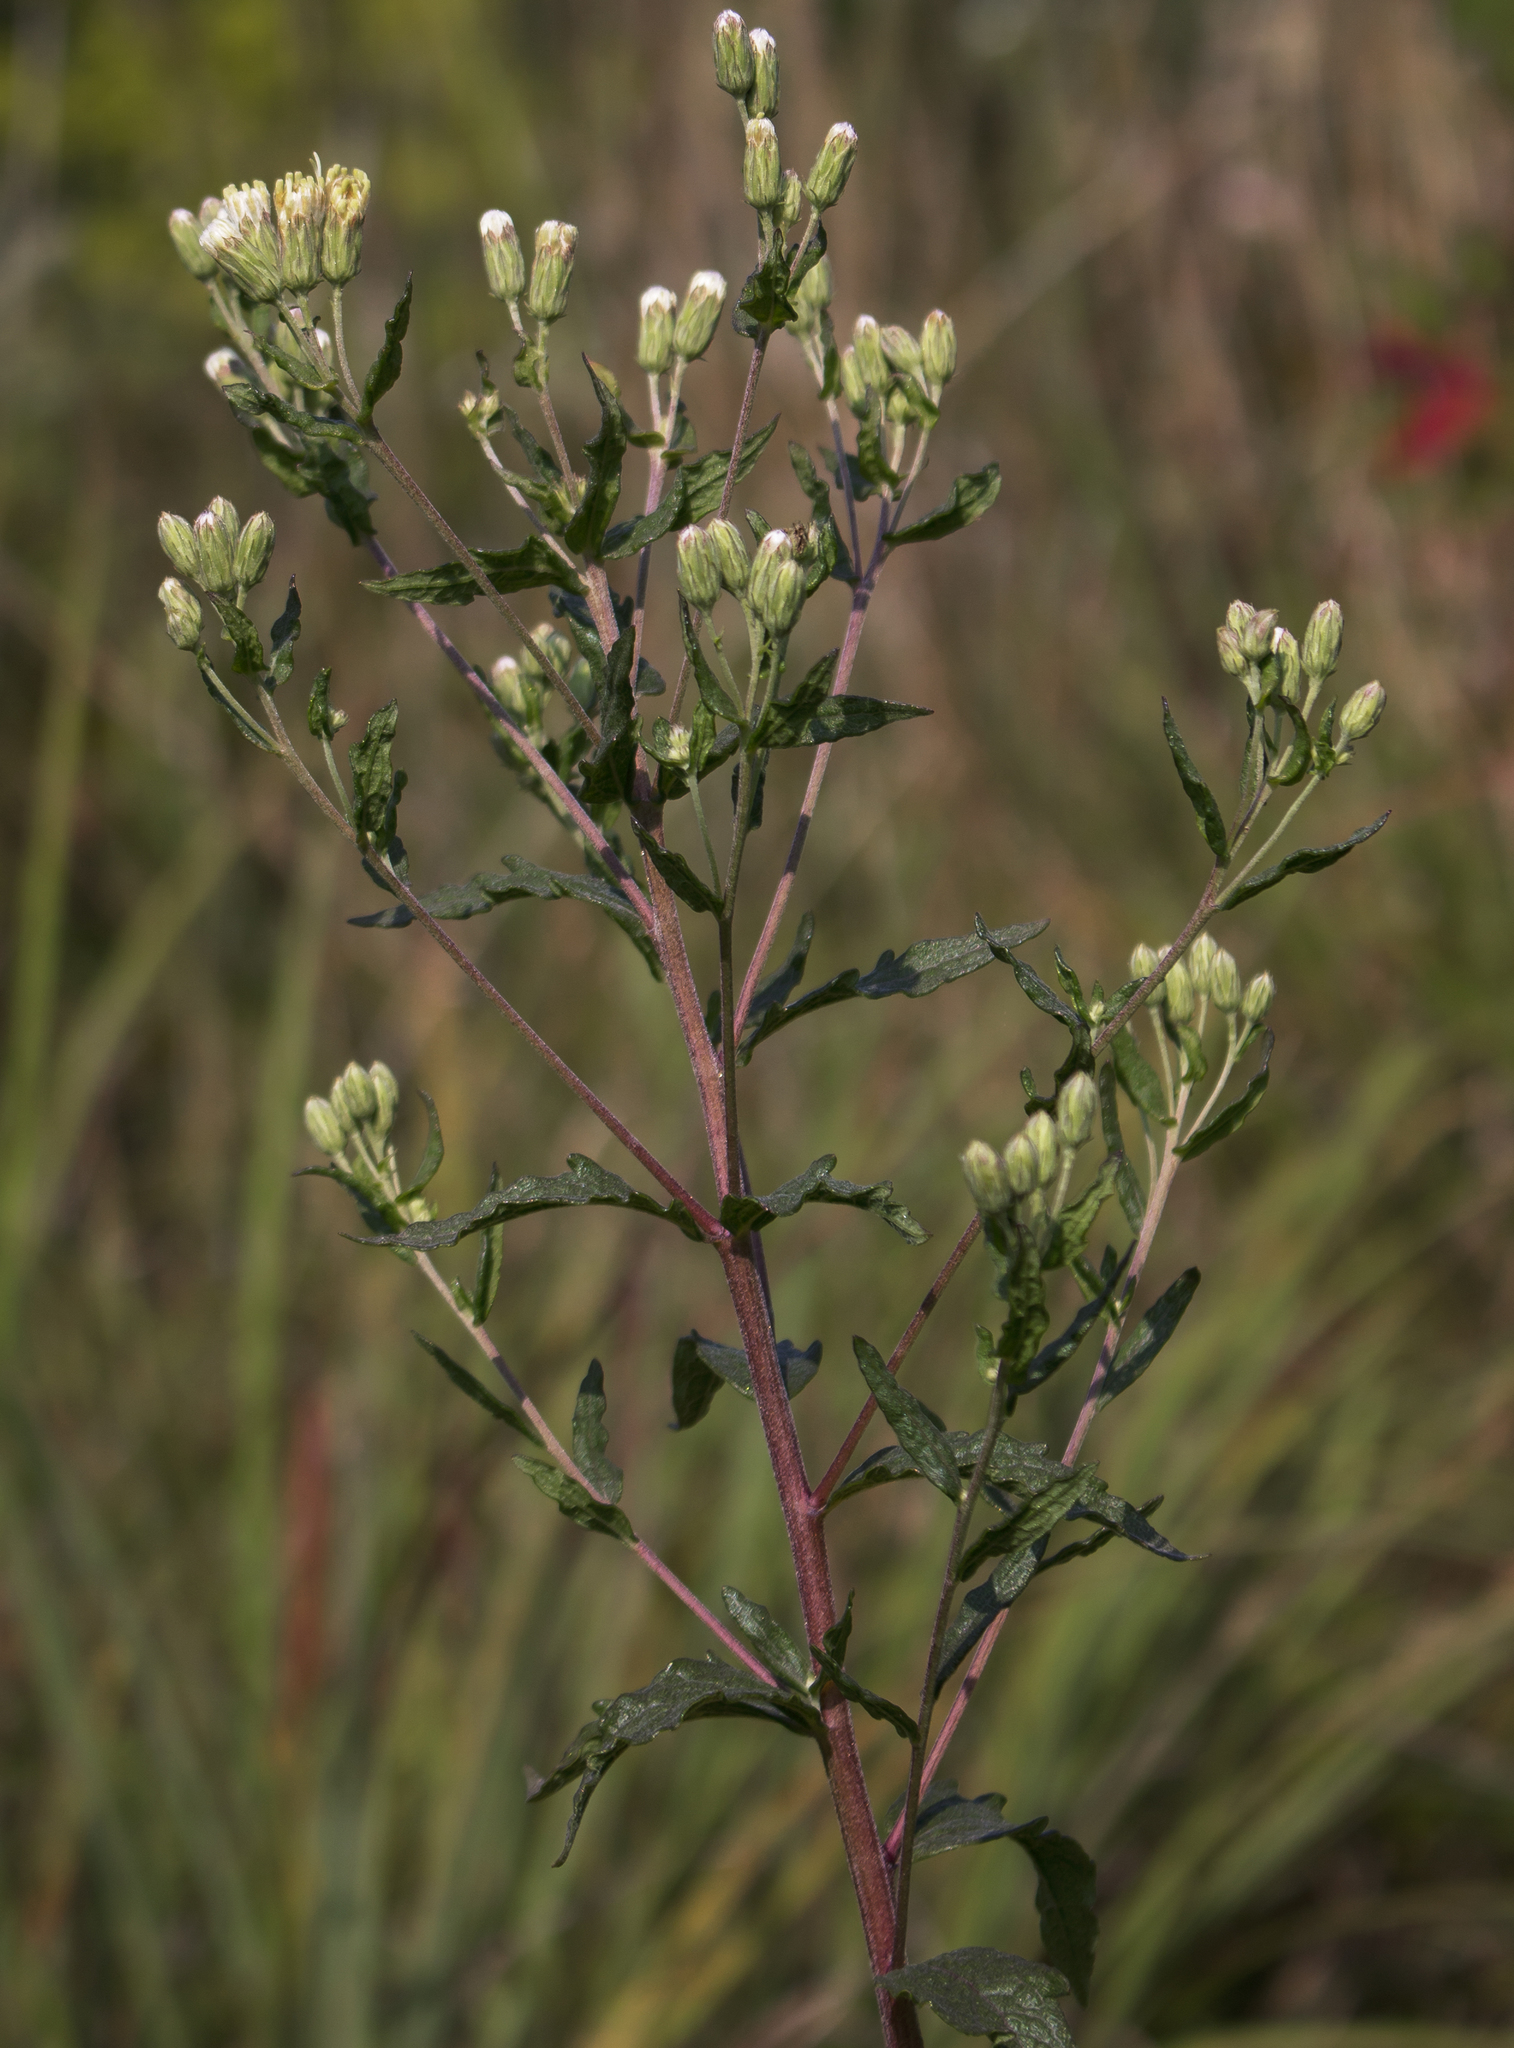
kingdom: Plantae
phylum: Tracheophyta
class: Magnoliopsida
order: Asterales
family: Asteraceae
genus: Brickellia
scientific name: Brickellia eupatorioides
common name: False boneset
